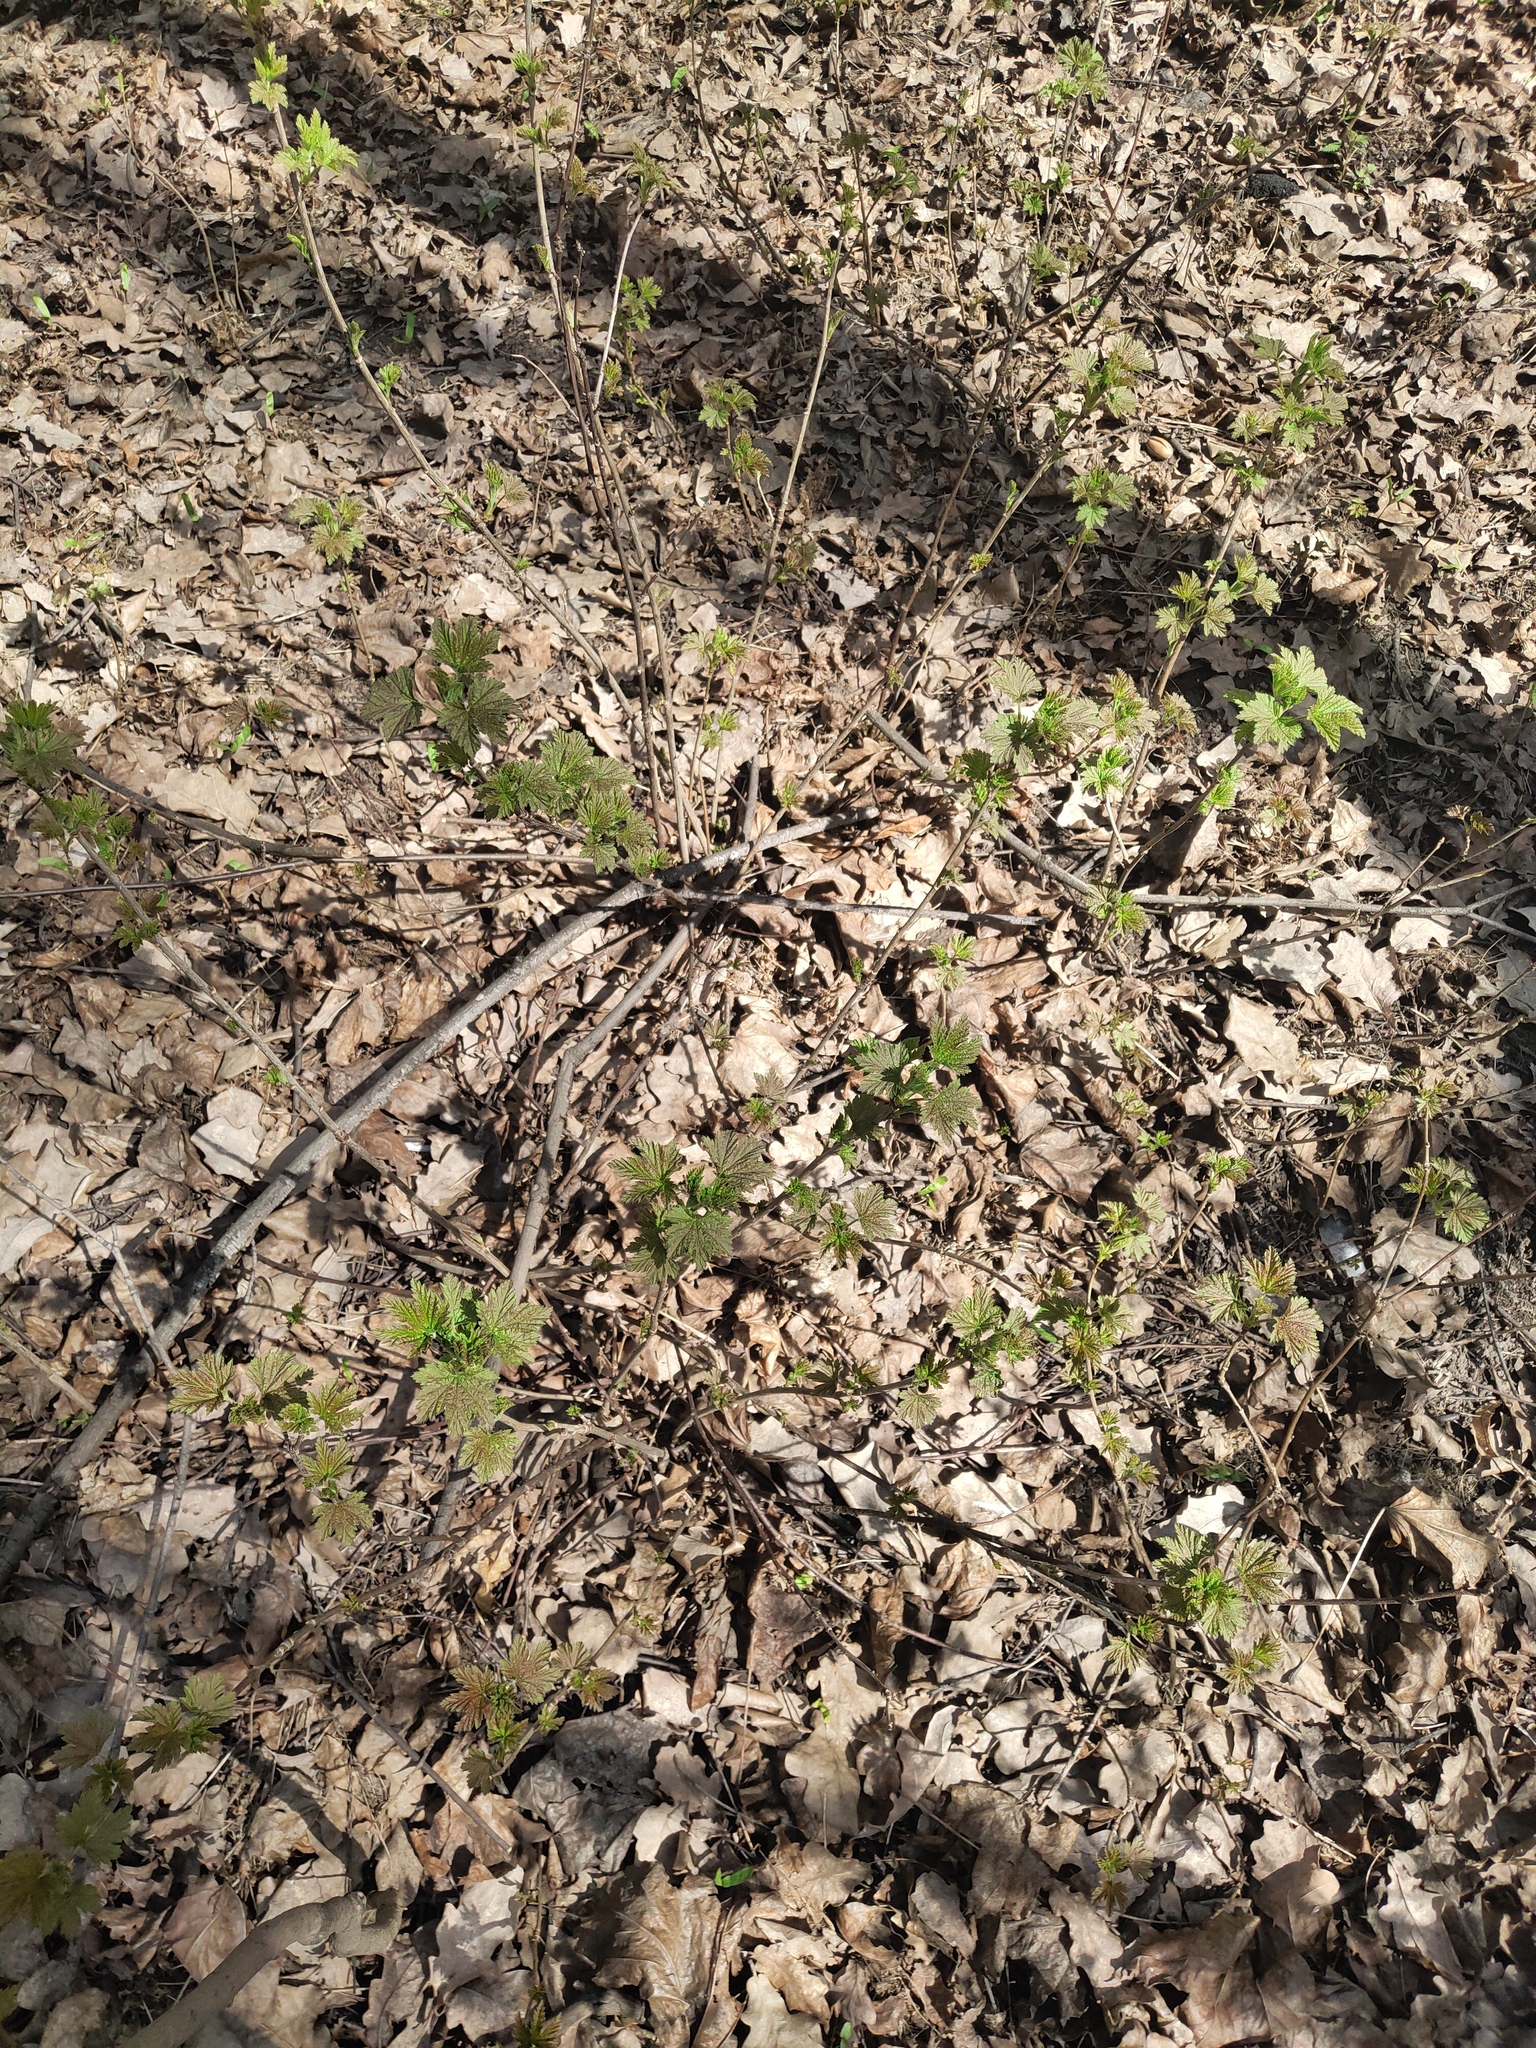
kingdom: Plantae
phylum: Tracheophyta
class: Magnoliopsida
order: Saxifragales
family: Grossulariaceae
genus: Ribes
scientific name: Ribes spicatum
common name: Downy currant
